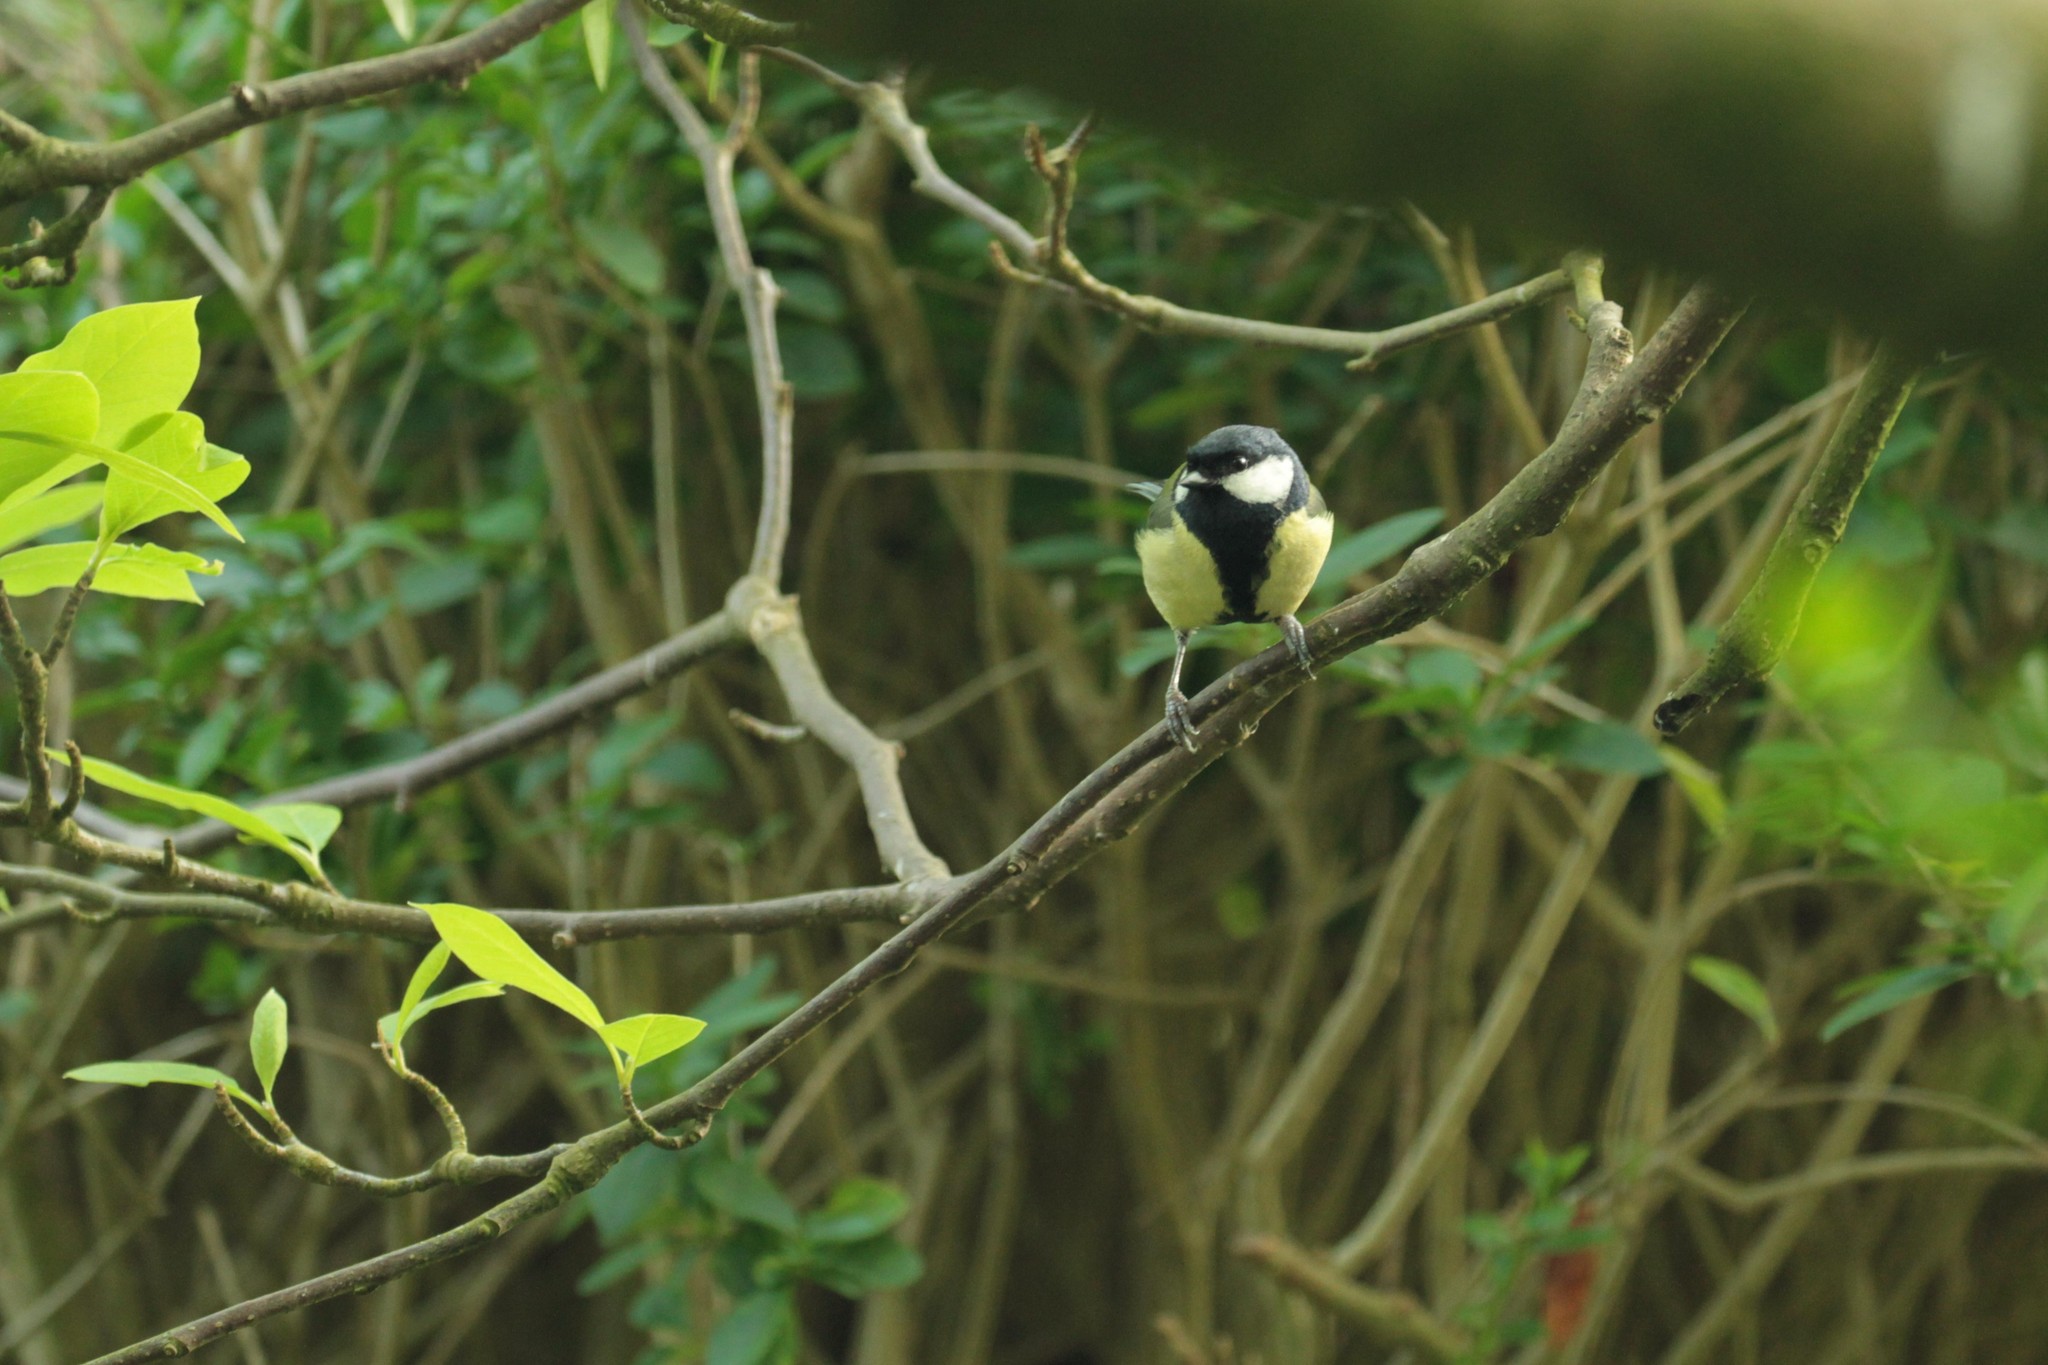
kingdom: Animalia
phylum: Chordata
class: Aves
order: Passeriformes
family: Paridae
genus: Parus
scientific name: Parus major
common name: Great tit
